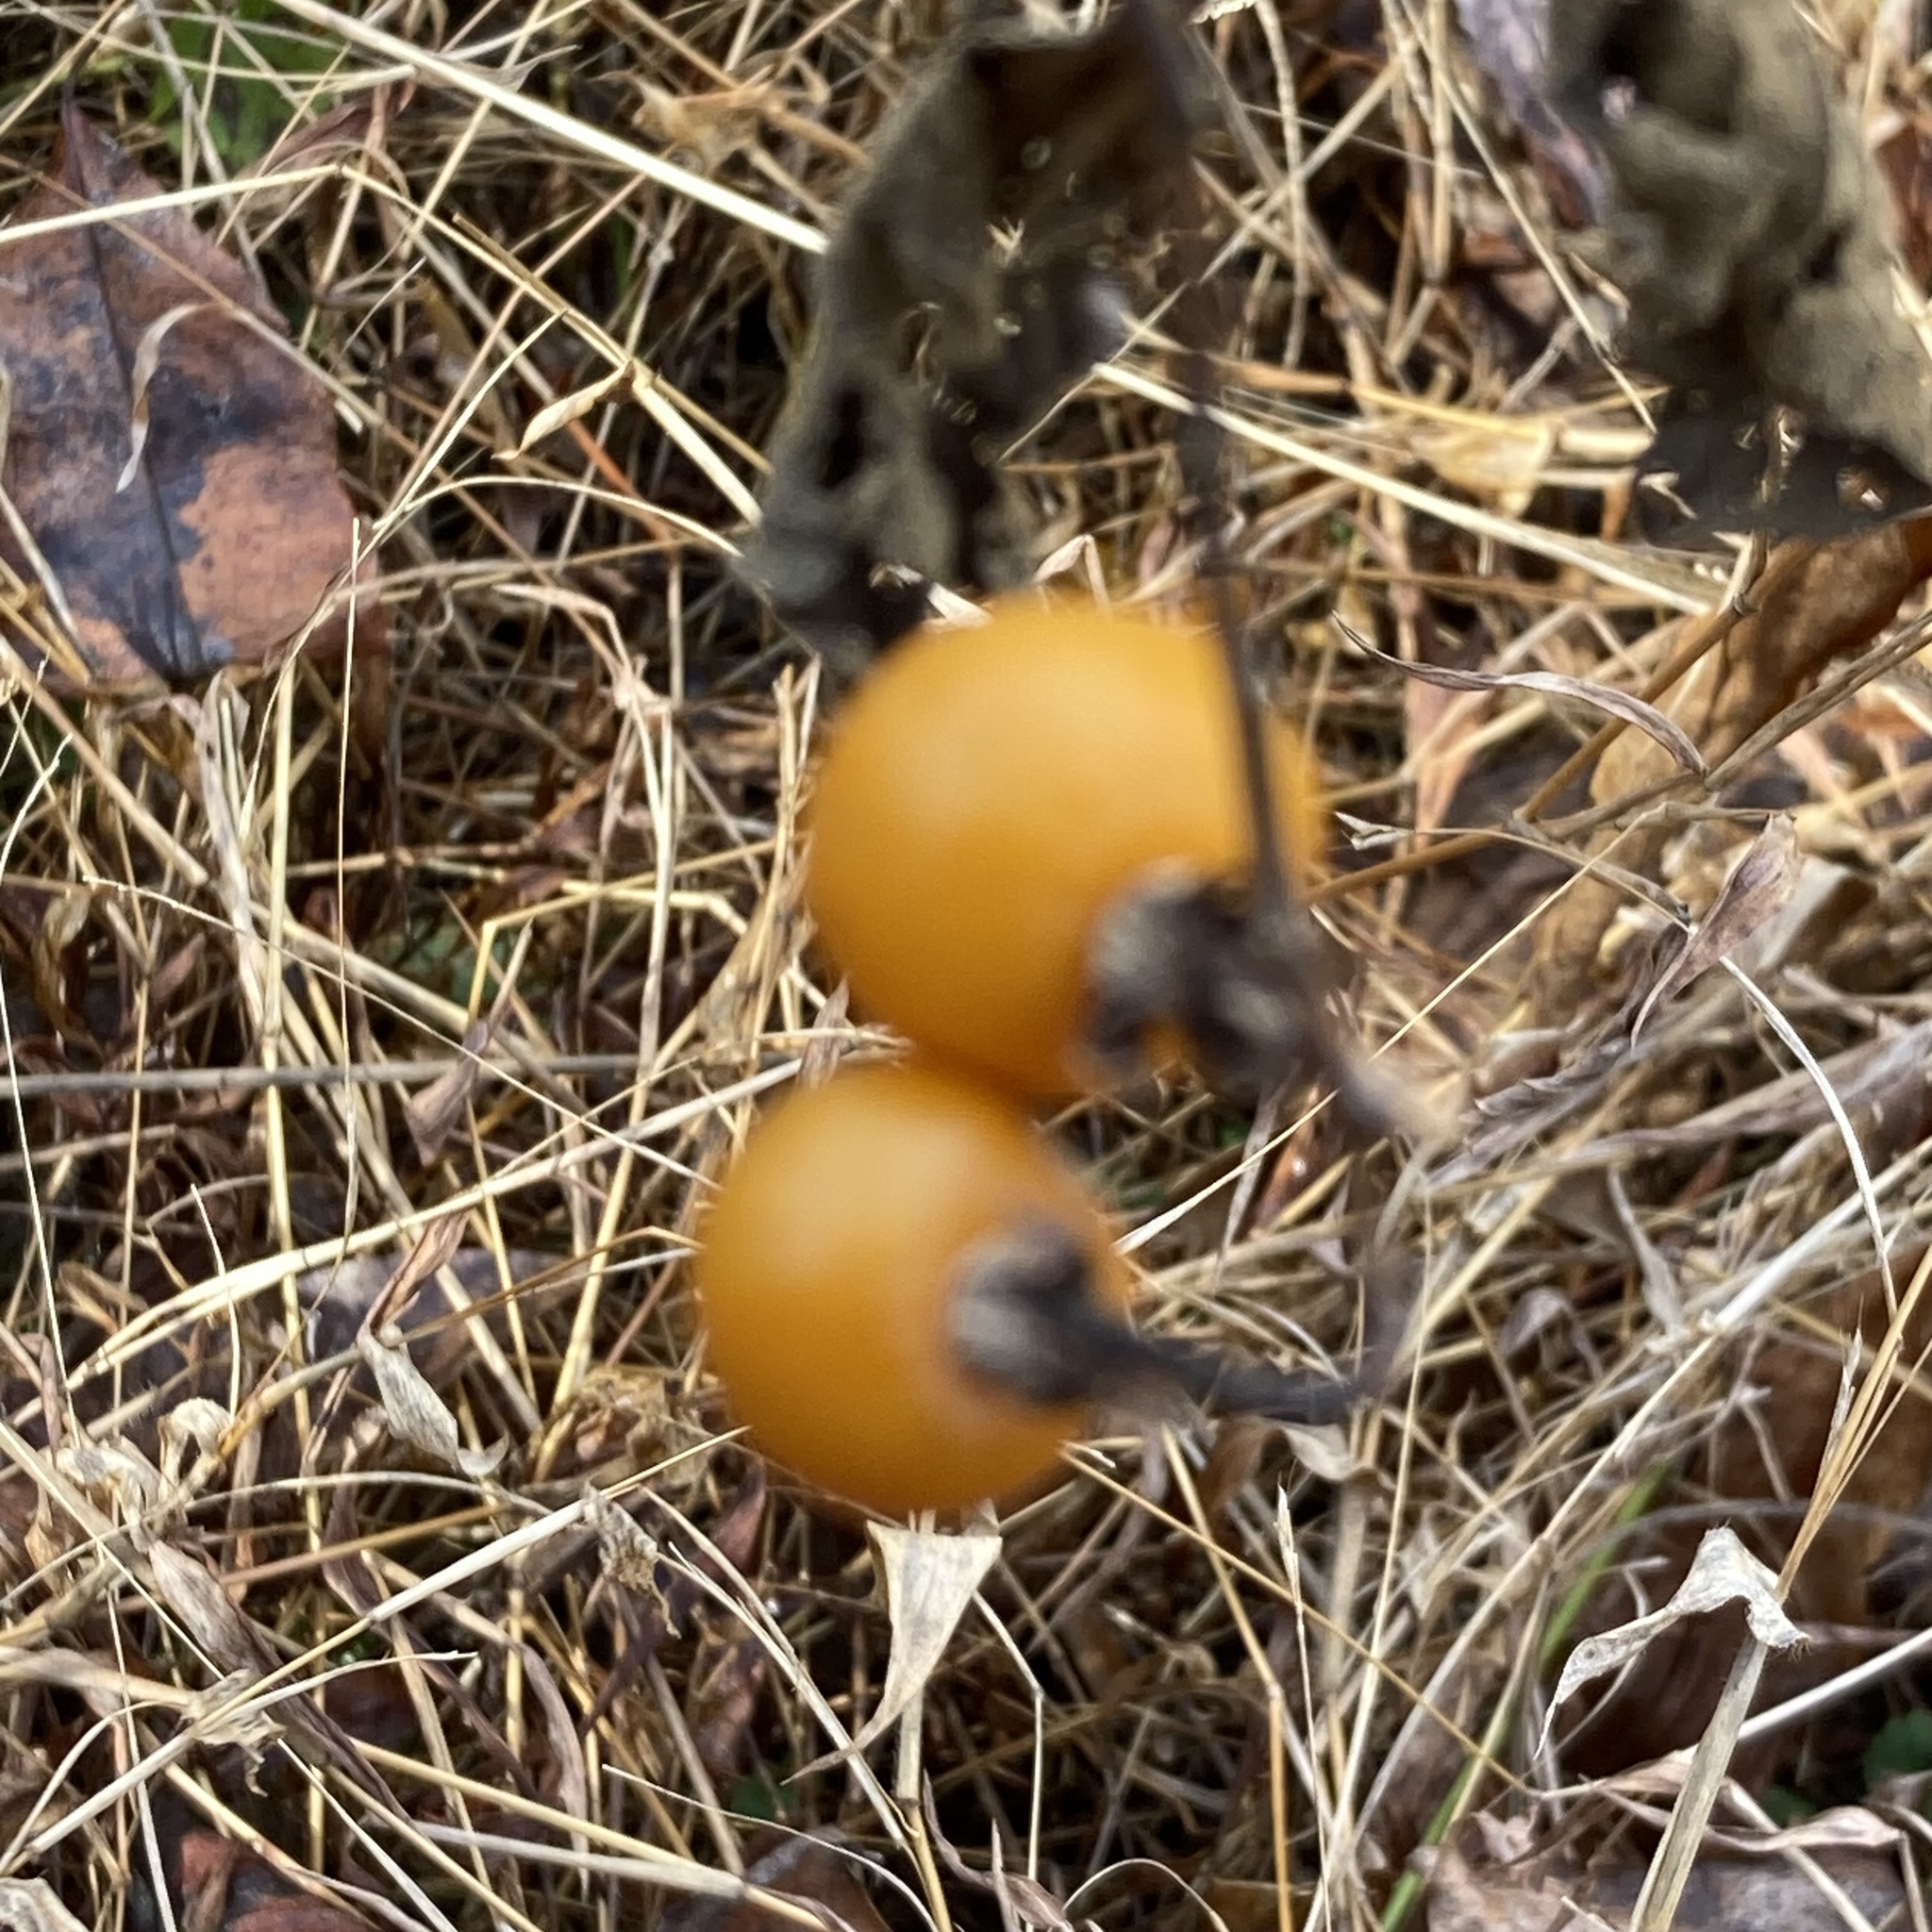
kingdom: Plantae
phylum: Tracheophyta
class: Magnoliopsida
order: Solanales
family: Solanaceae
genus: Solanum
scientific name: Solanum carolinense
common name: Horse-nettle
